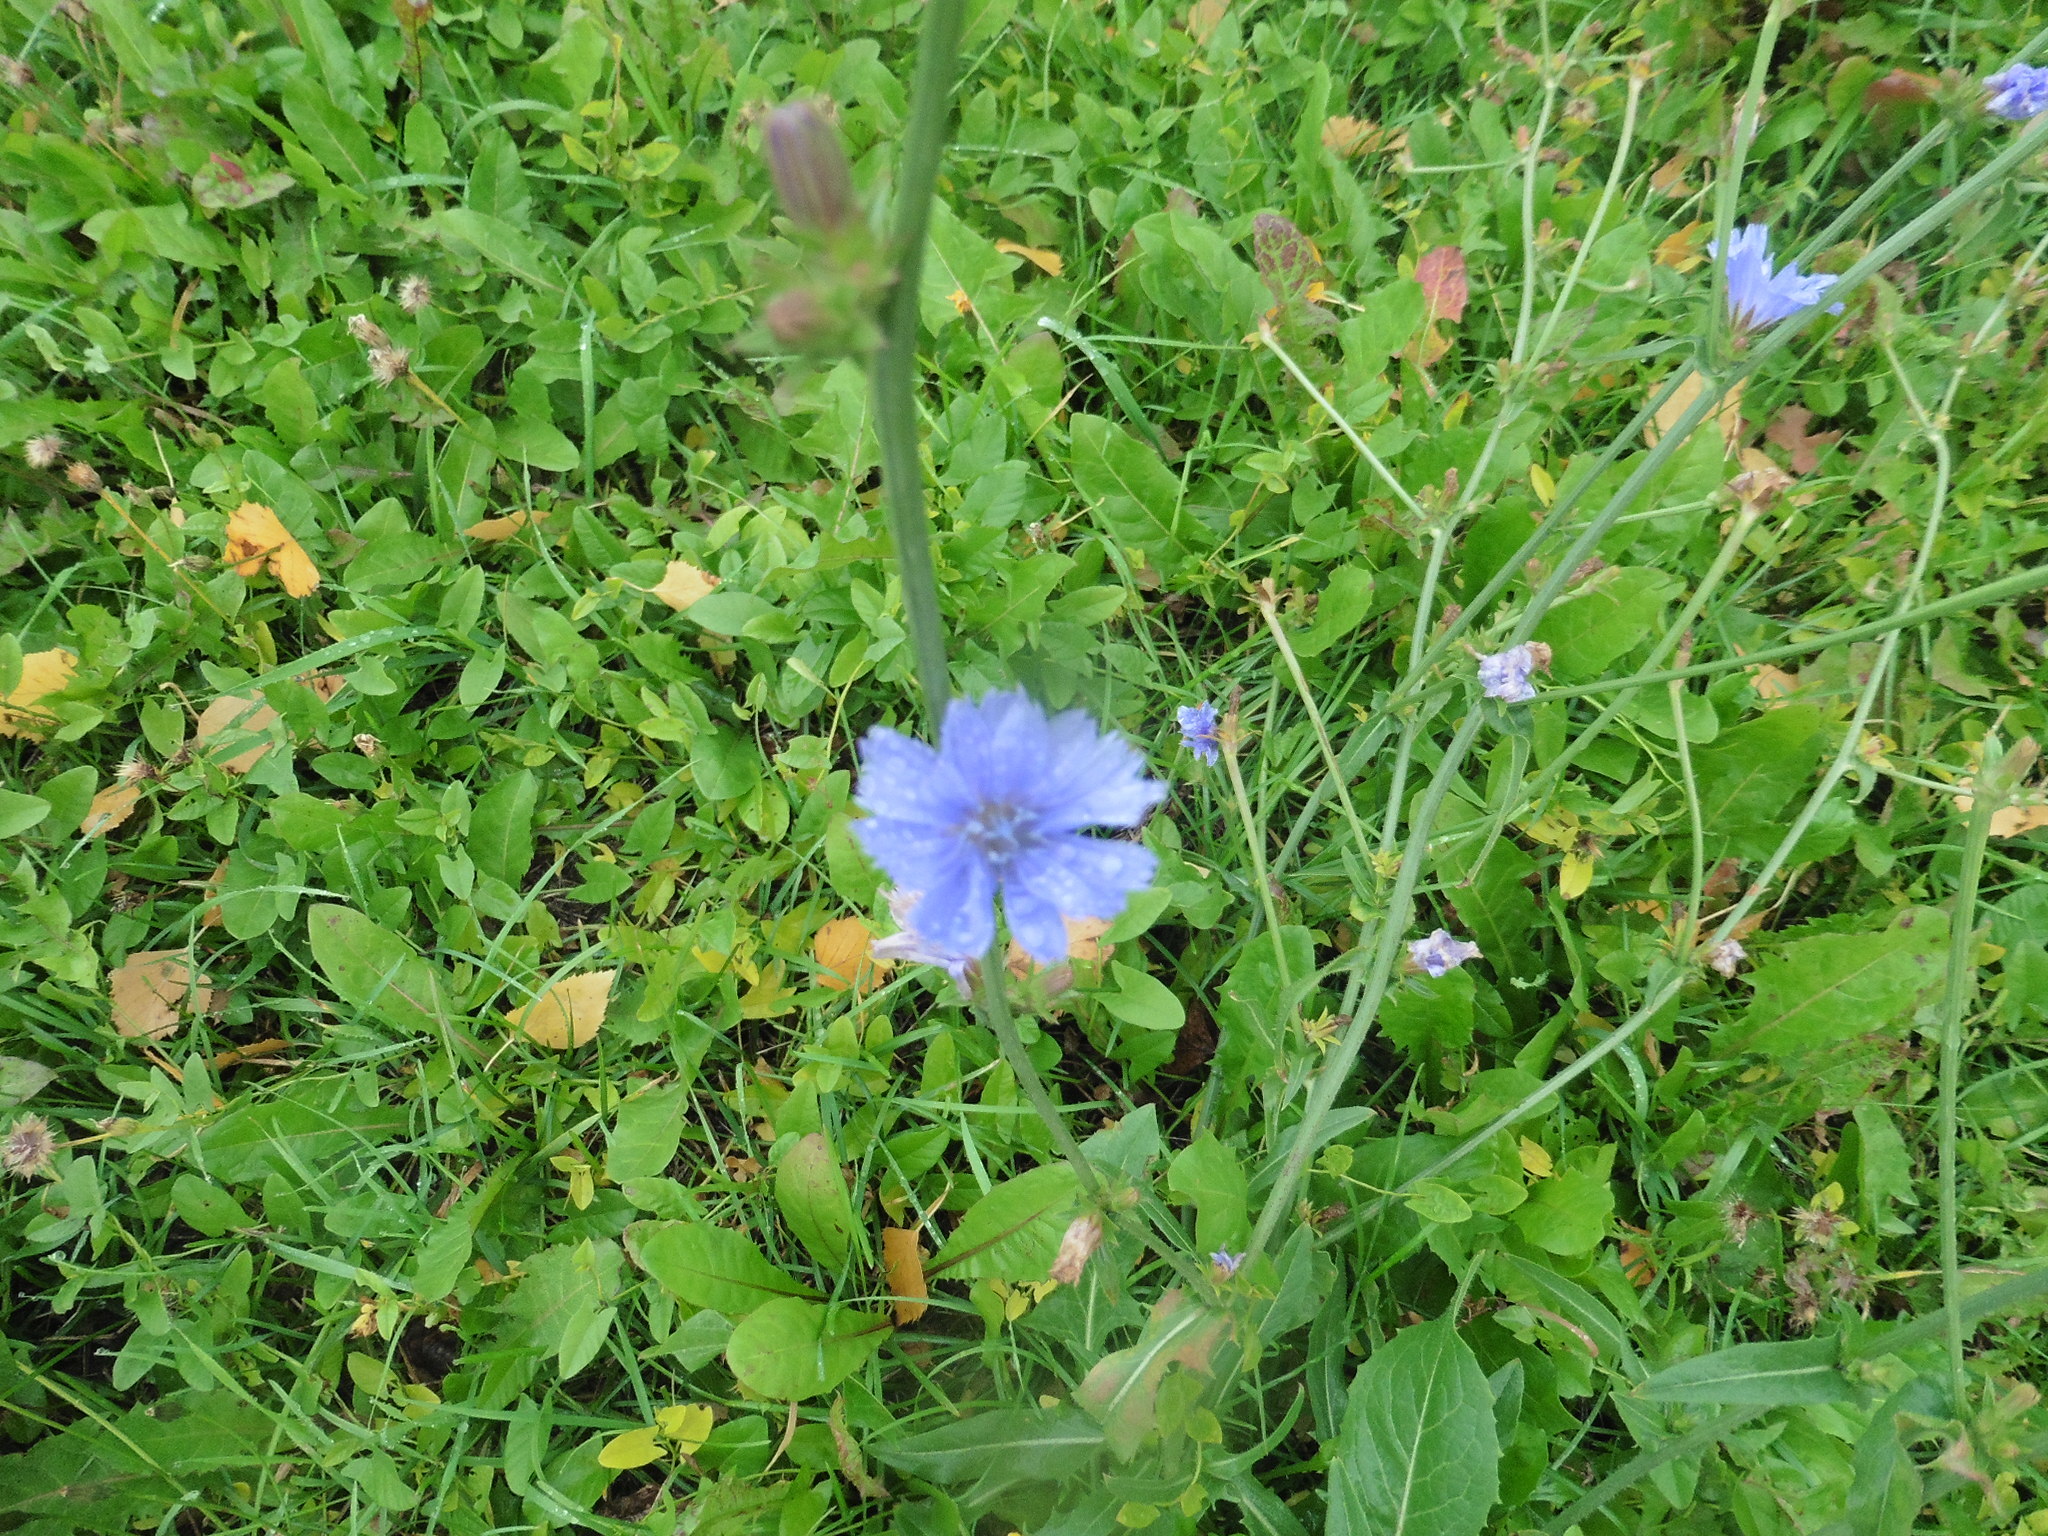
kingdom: Plantae
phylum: Tracheophyta
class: Magnoliopsida
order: Asterales
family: Asteraceae
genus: Cichorium
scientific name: Cichorium intybus
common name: Chicory
